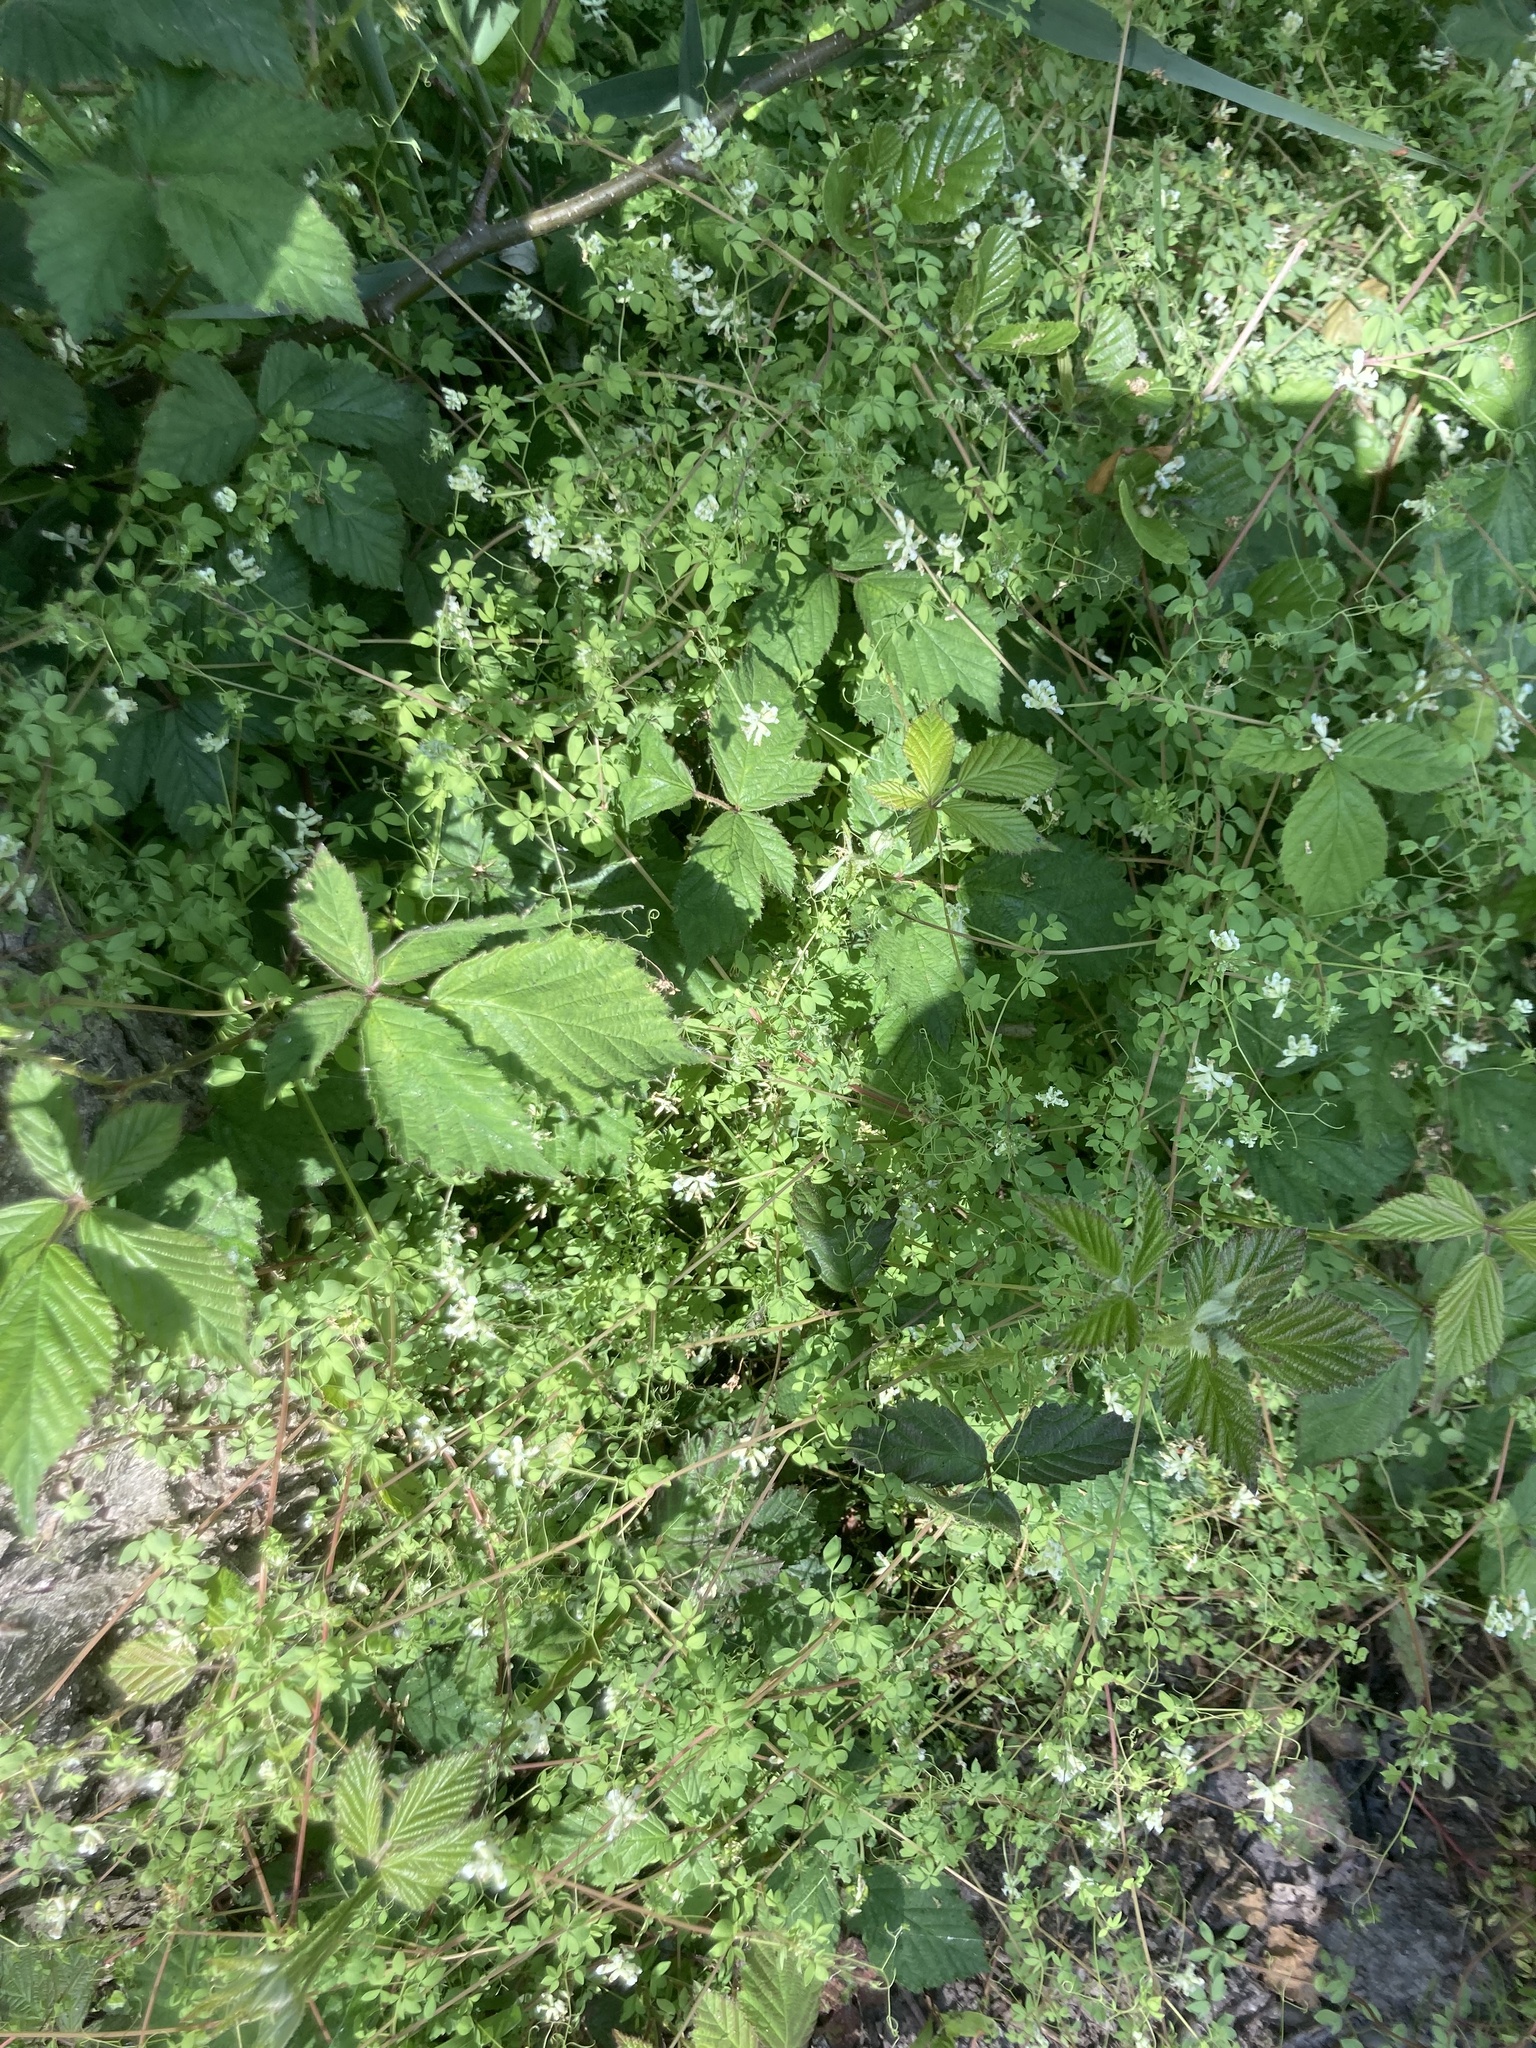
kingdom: Plantae
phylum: Tracheophyta
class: Magnoliopsida
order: Ranunculales
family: Papaveraceae
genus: Ceratocapnos
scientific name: Ceratocapnos claviculata
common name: Climbing corydalis
